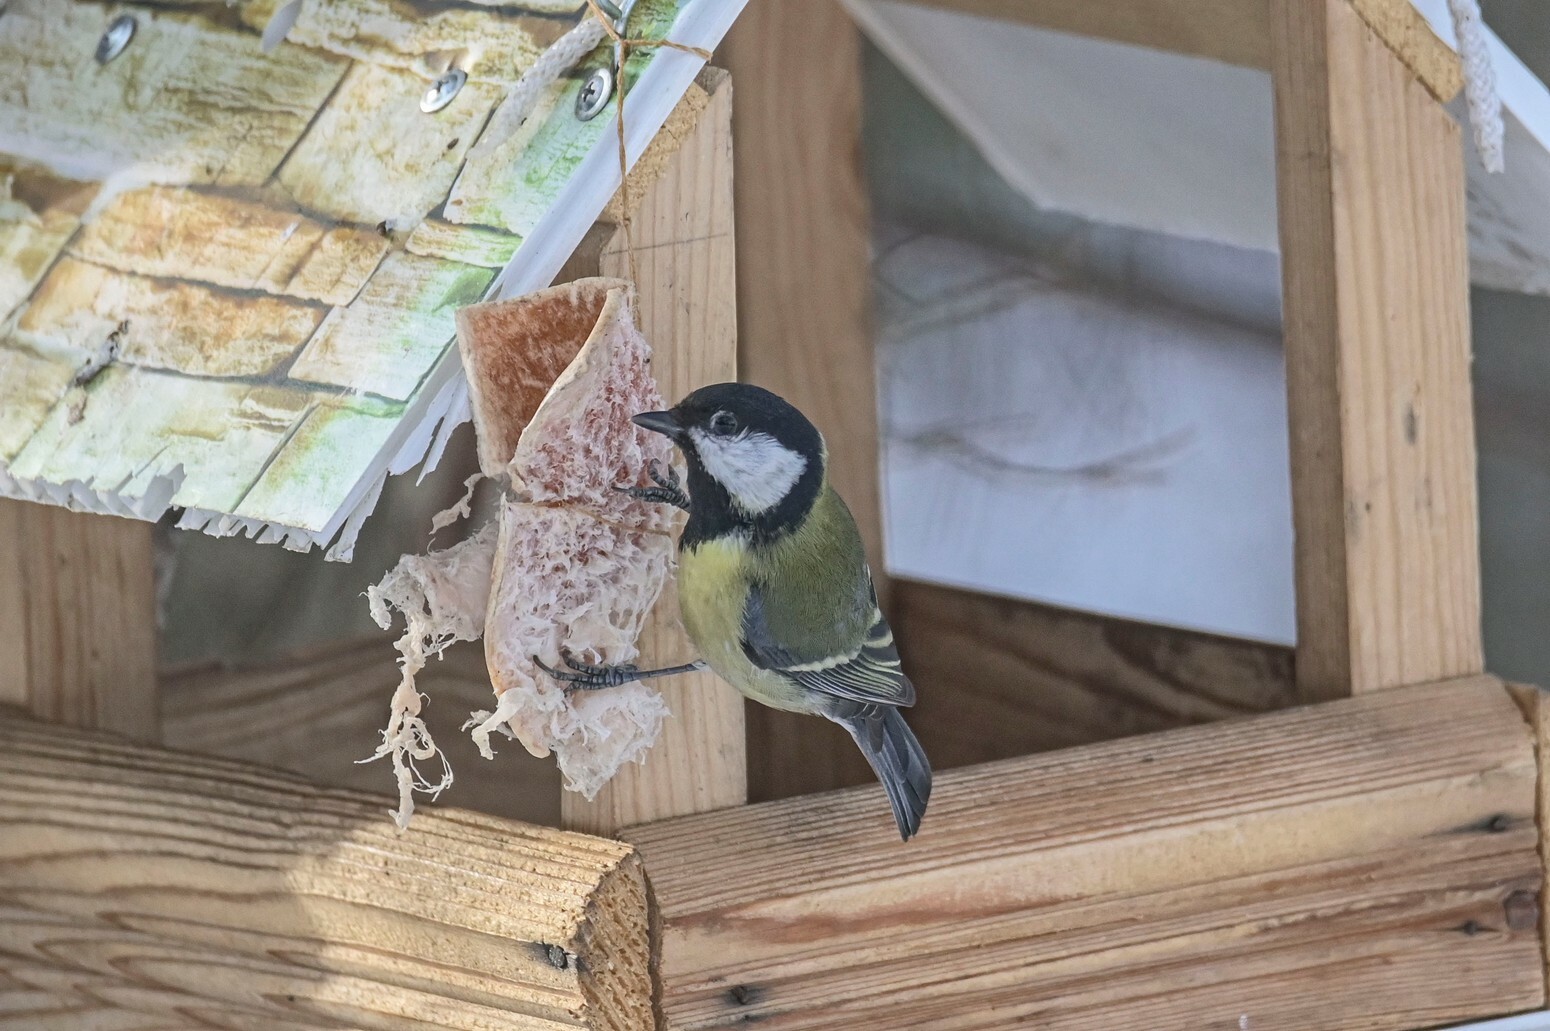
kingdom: Animalia
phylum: Chordata
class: Aves
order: Passeriformes
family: Paridae
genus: Parus
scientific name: Parus major
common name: Great tit
